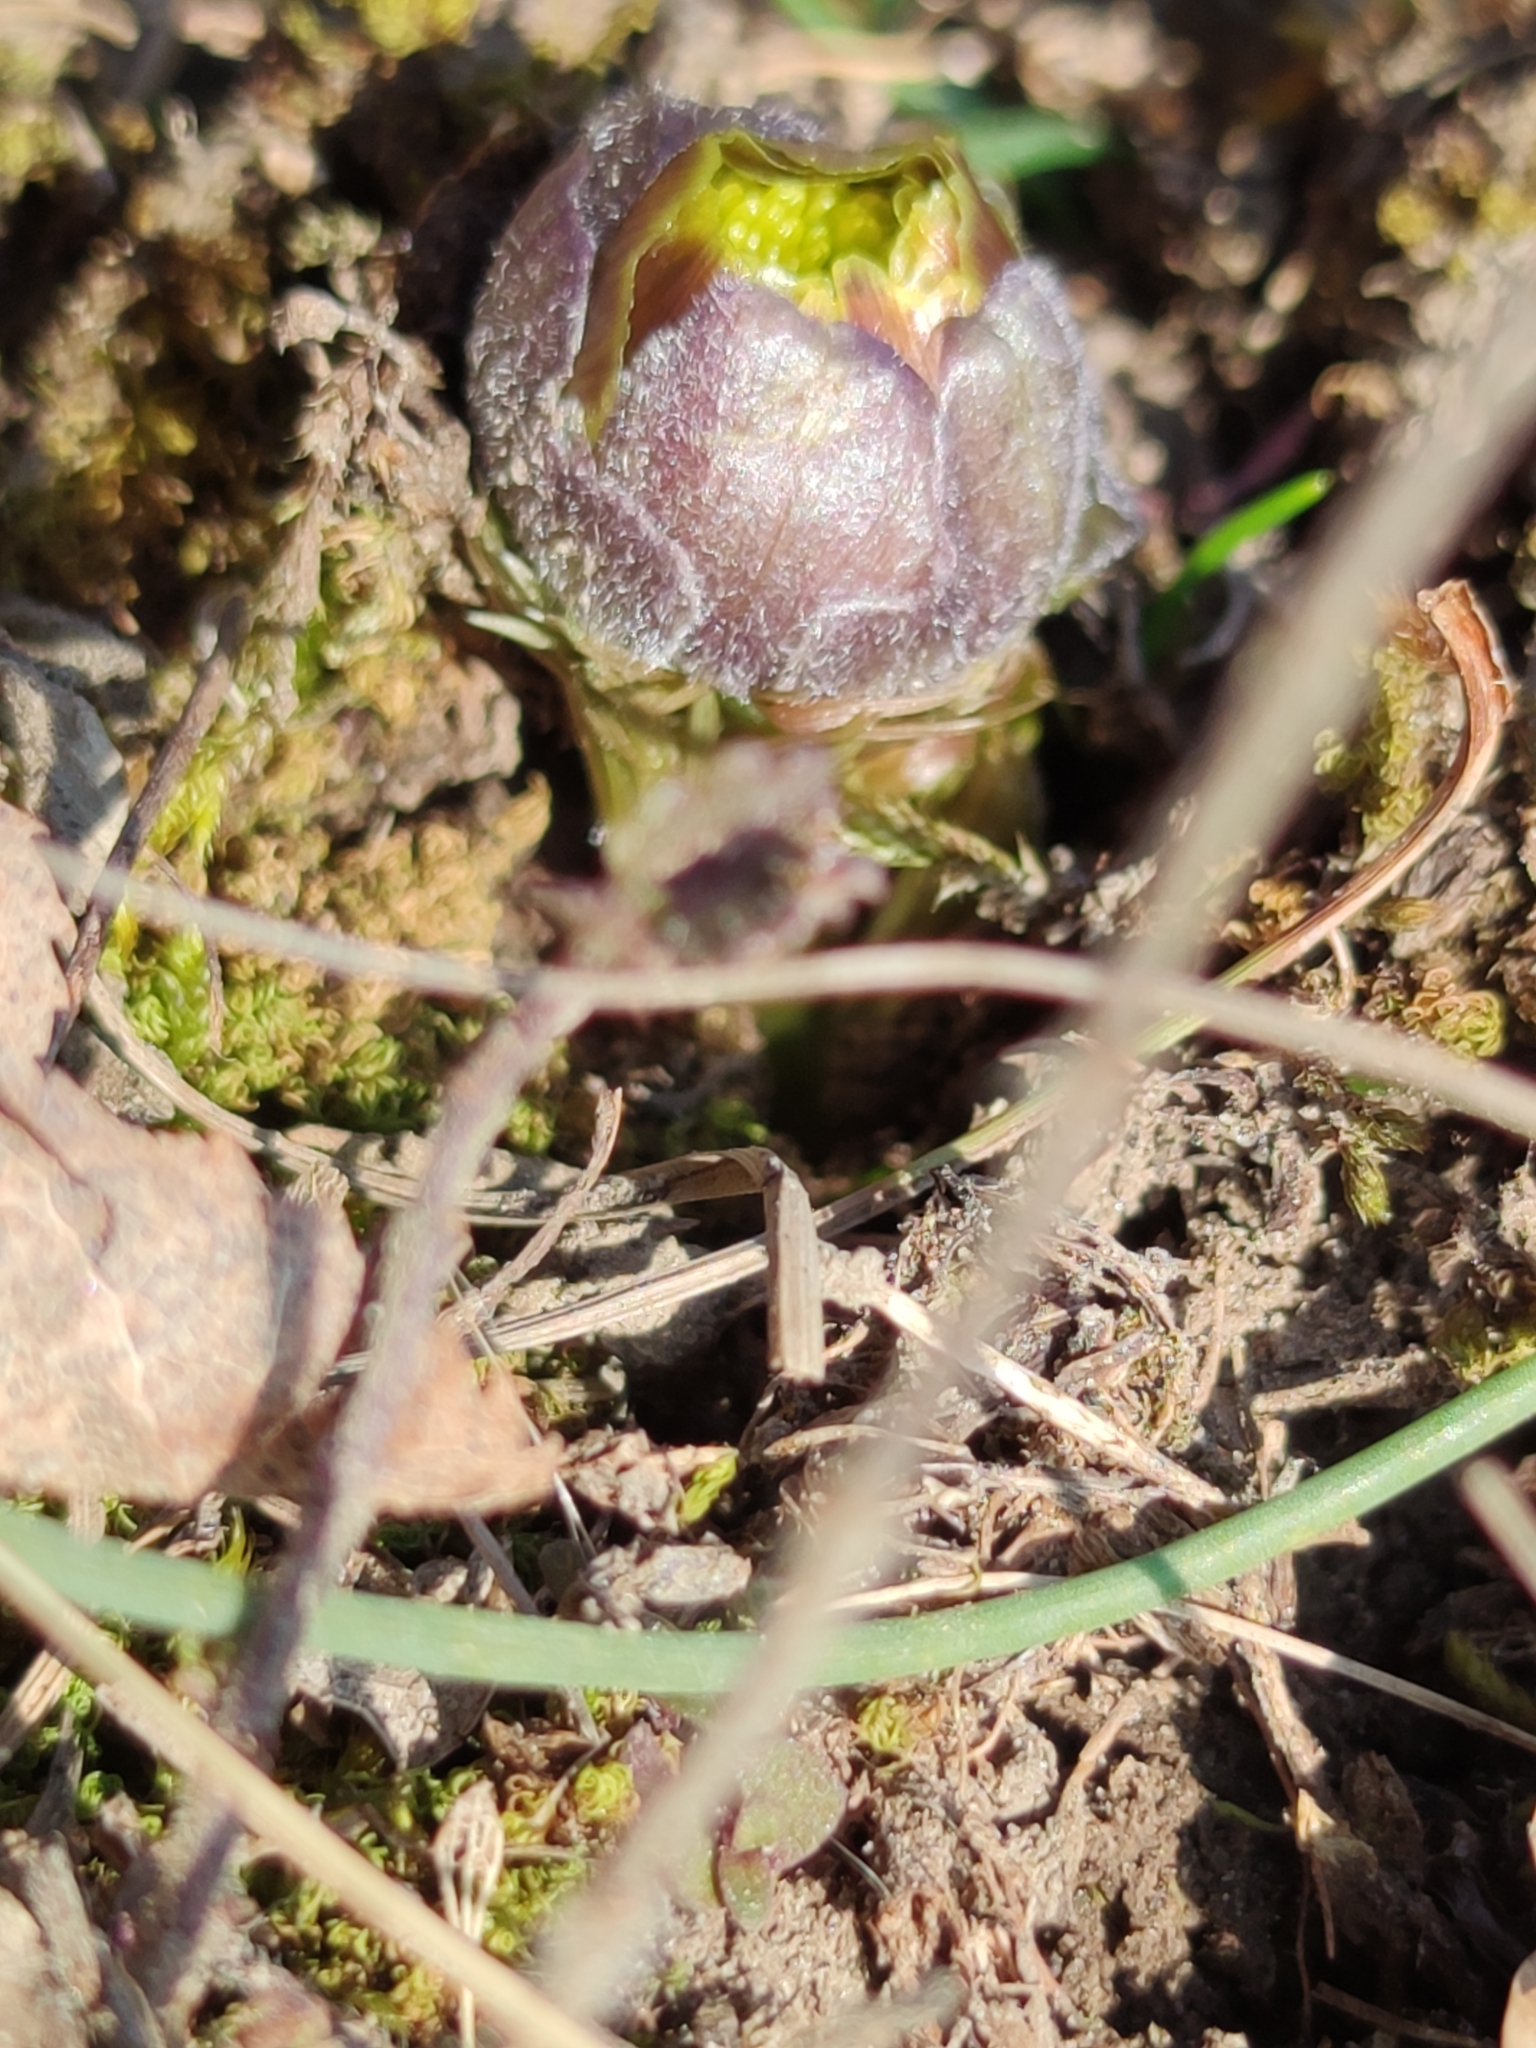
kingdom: Plantae
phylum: Tracheophyta
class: Magnoliopsida
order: Ranunculales
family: Ranunculaceae
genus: Adonis
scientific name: Adonis vernalis
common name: Yellow pheasants-eye
